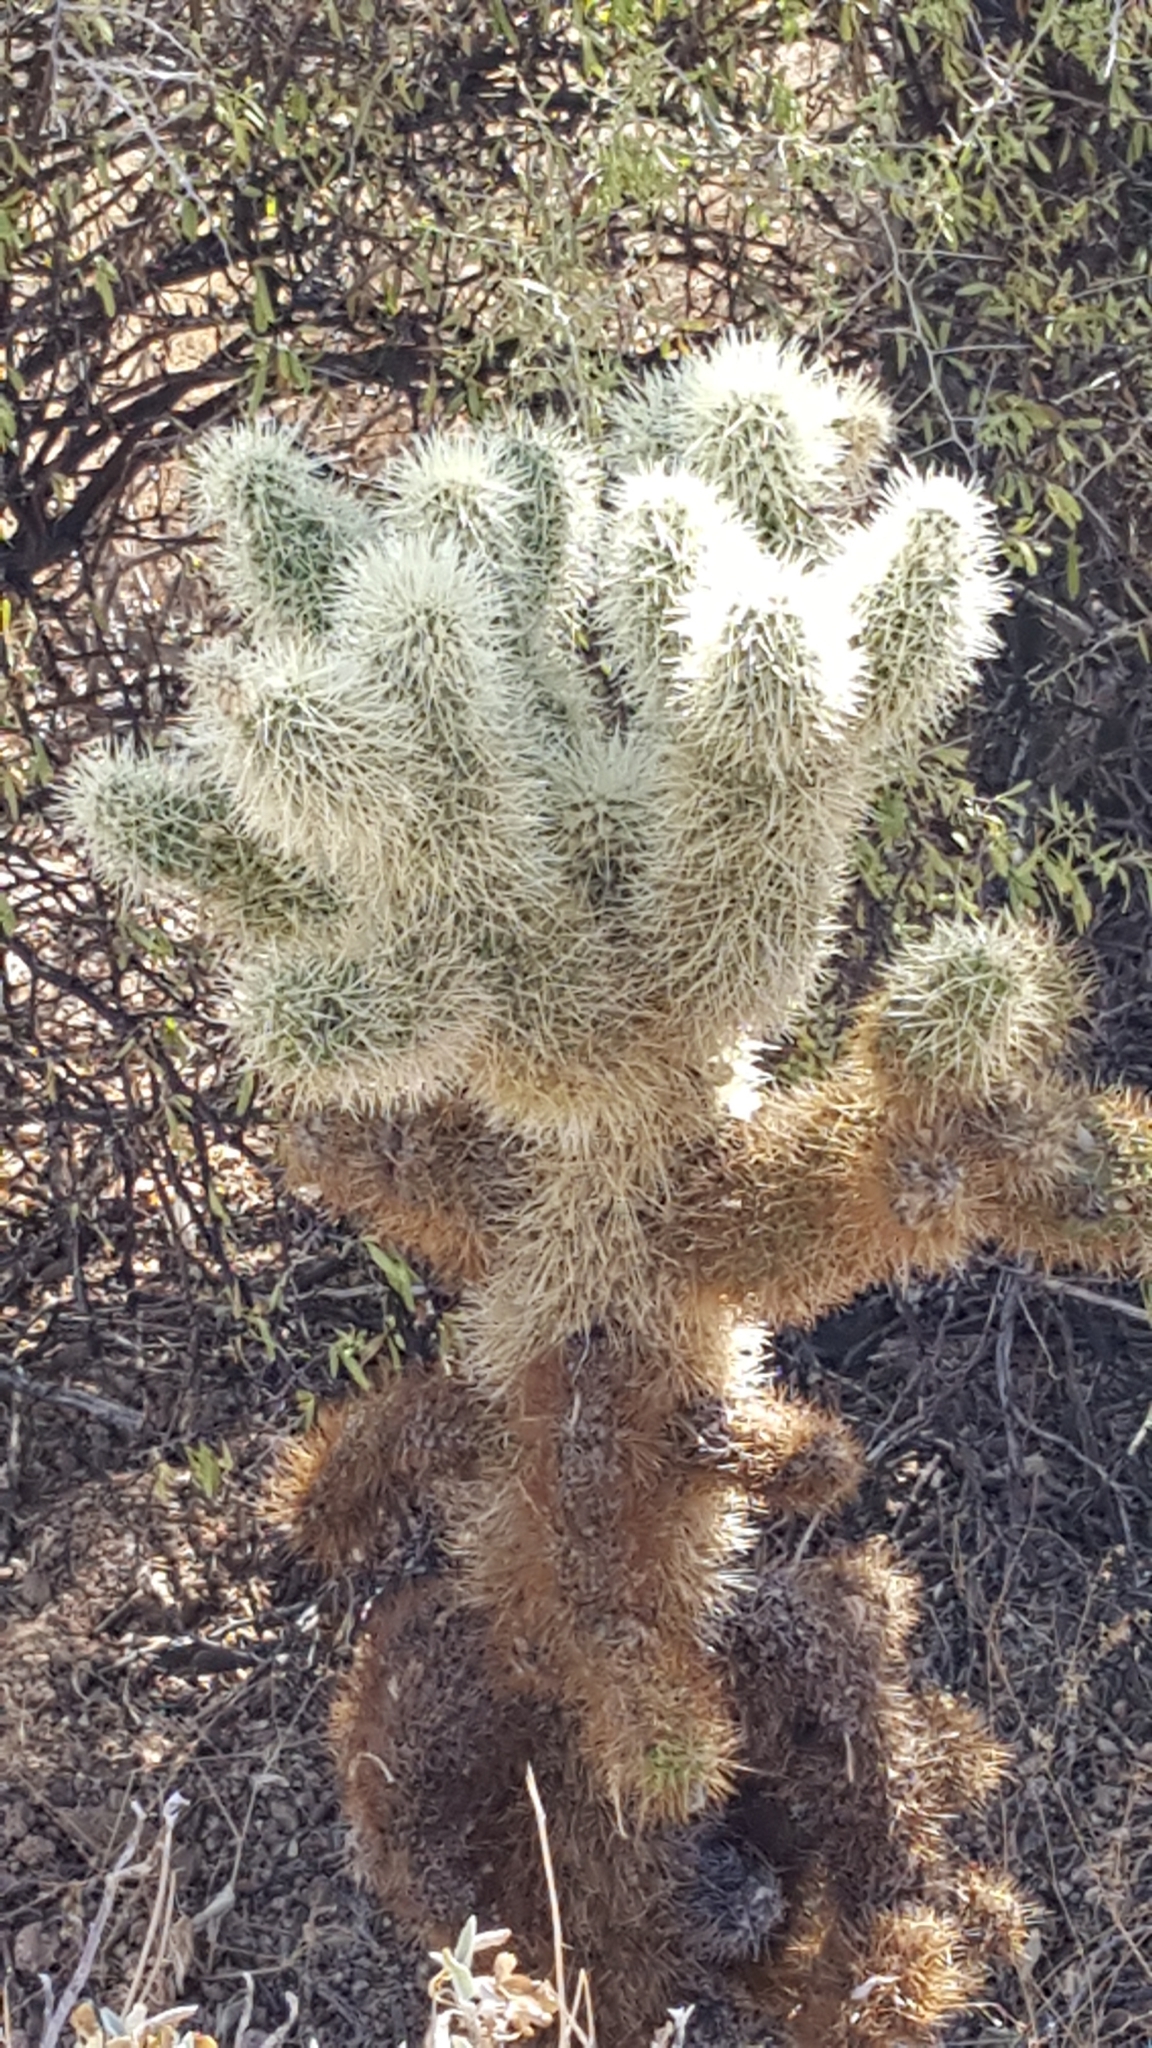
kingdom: Plantae
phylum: Tracheophyta
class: Magnoliopsida
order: Caryophyllales
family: Cactaceae
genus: Cylindropuntia
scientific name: Cylindropuntia fosbergii
